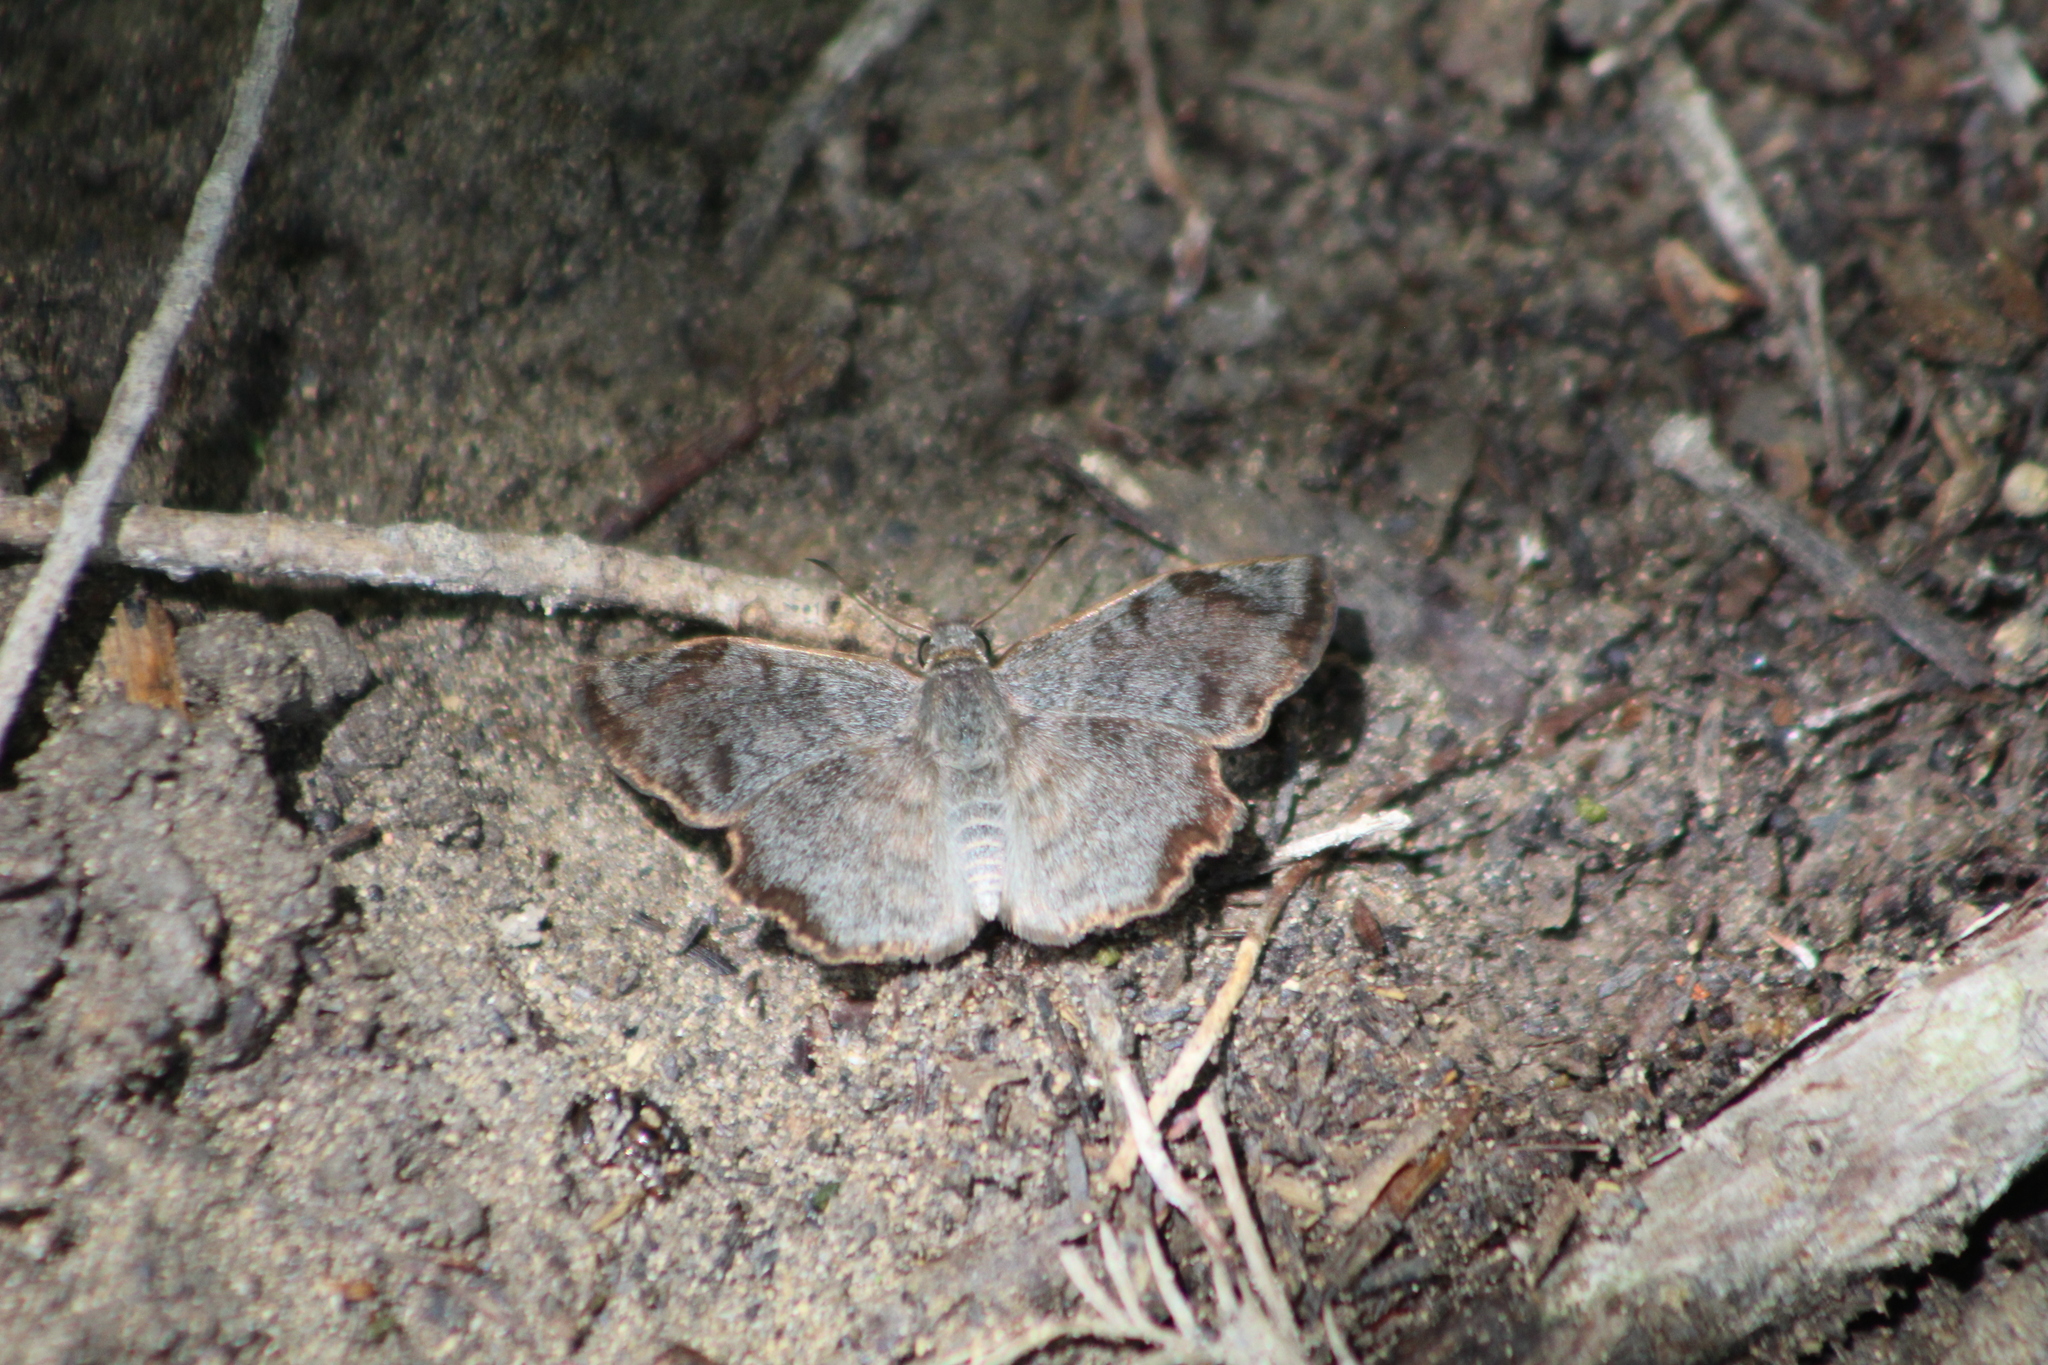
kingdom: Animalia
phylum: Arthropoda
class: Insecta
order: Lepidoptera
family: Hesperiidae
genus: Antigonus
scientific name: Antigonus erosus
